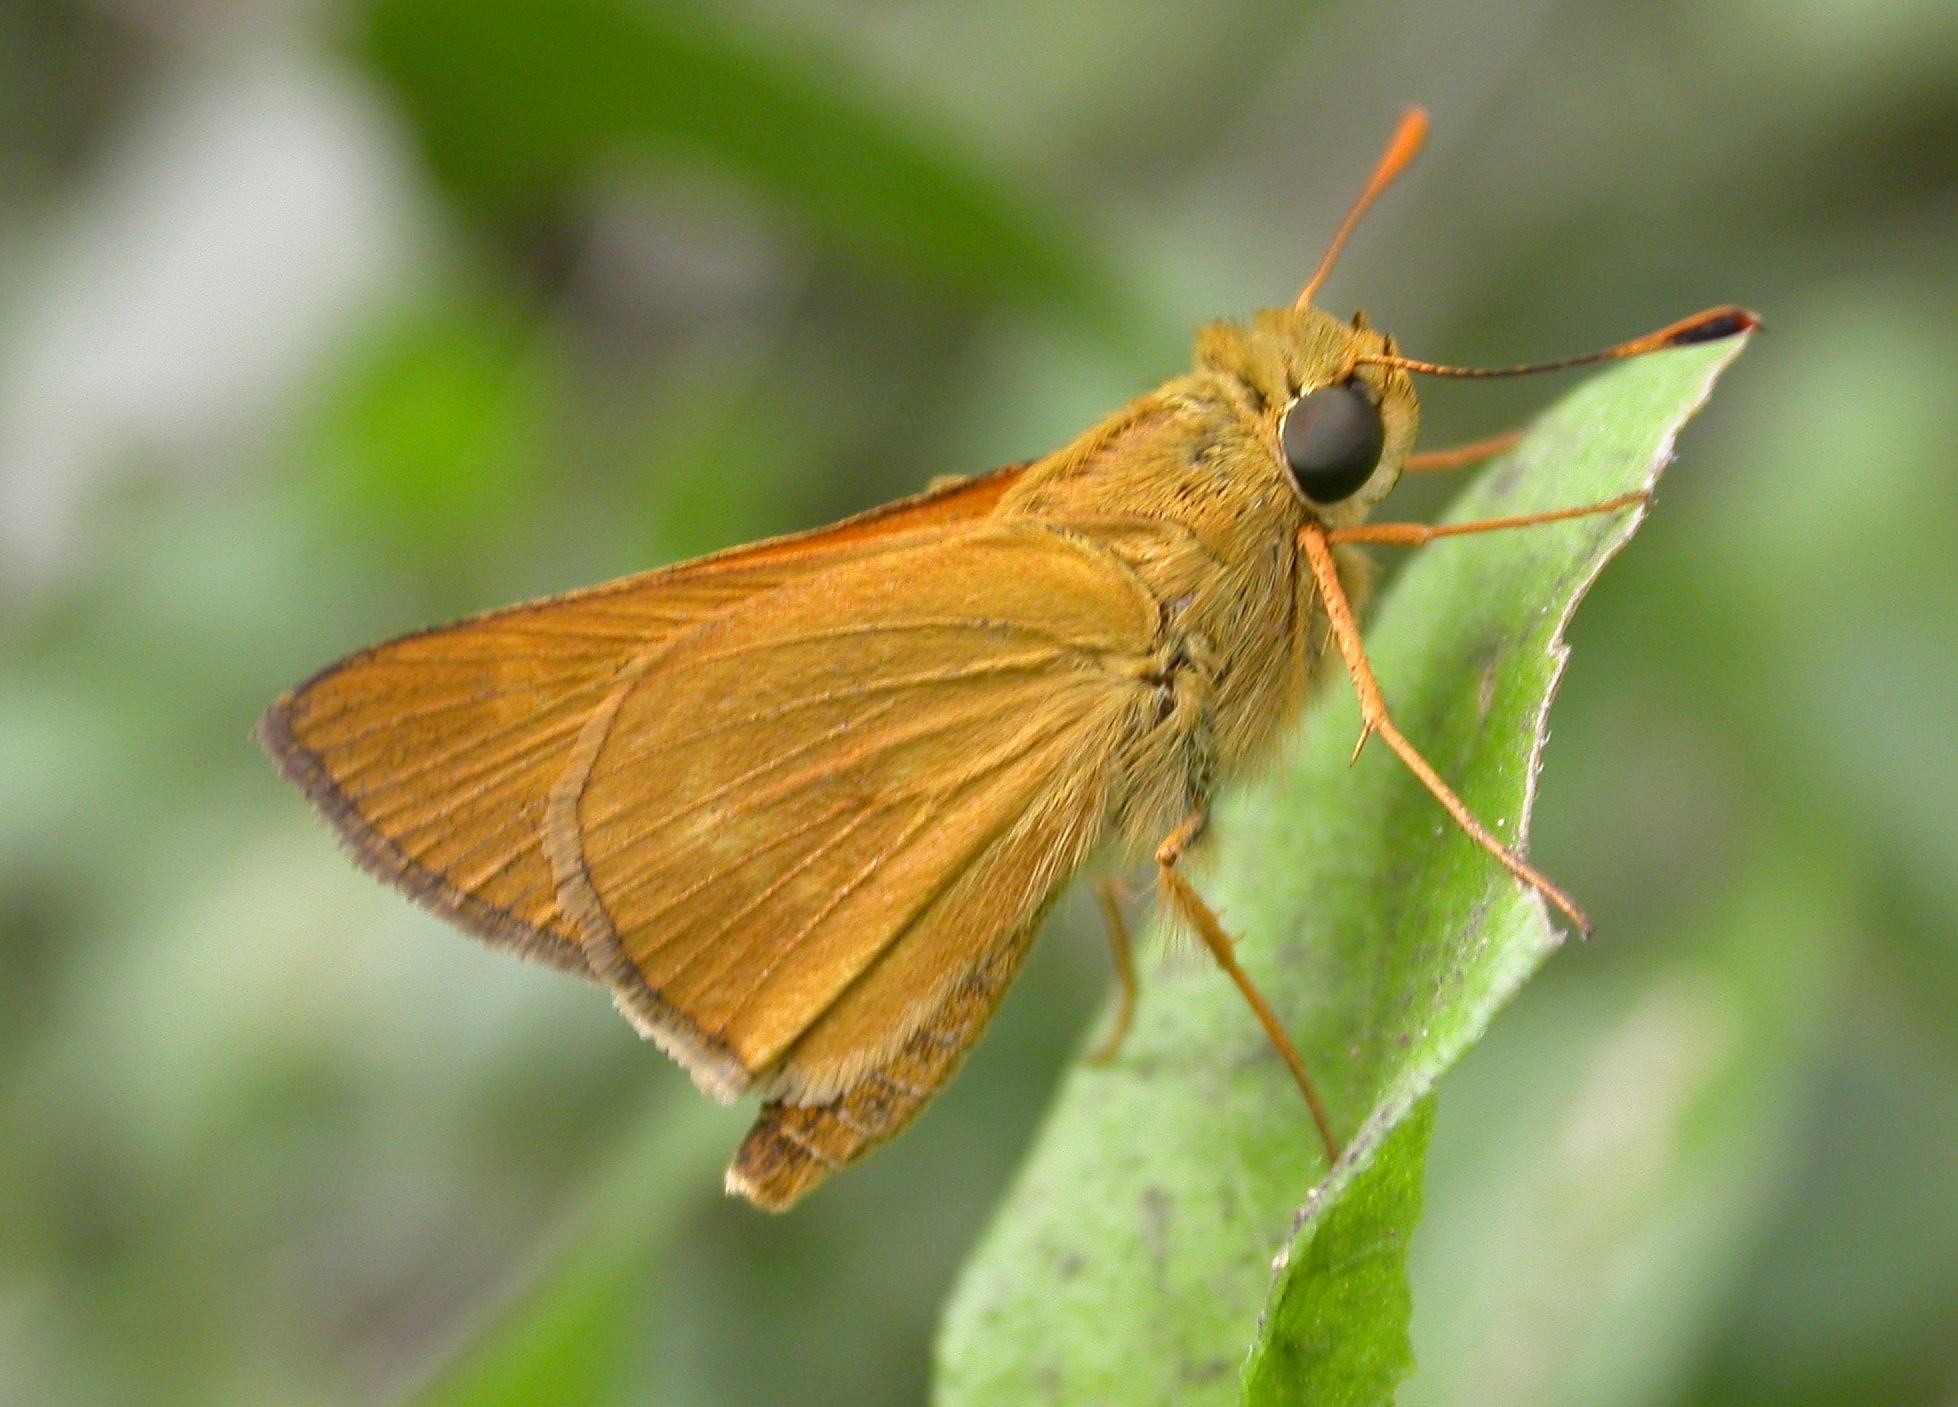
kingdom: Animalia
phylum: Arthropoda
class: Insecta
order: Lepidoptera
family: Hesperiidae
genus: Mellana
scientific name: Mellana eulogius
